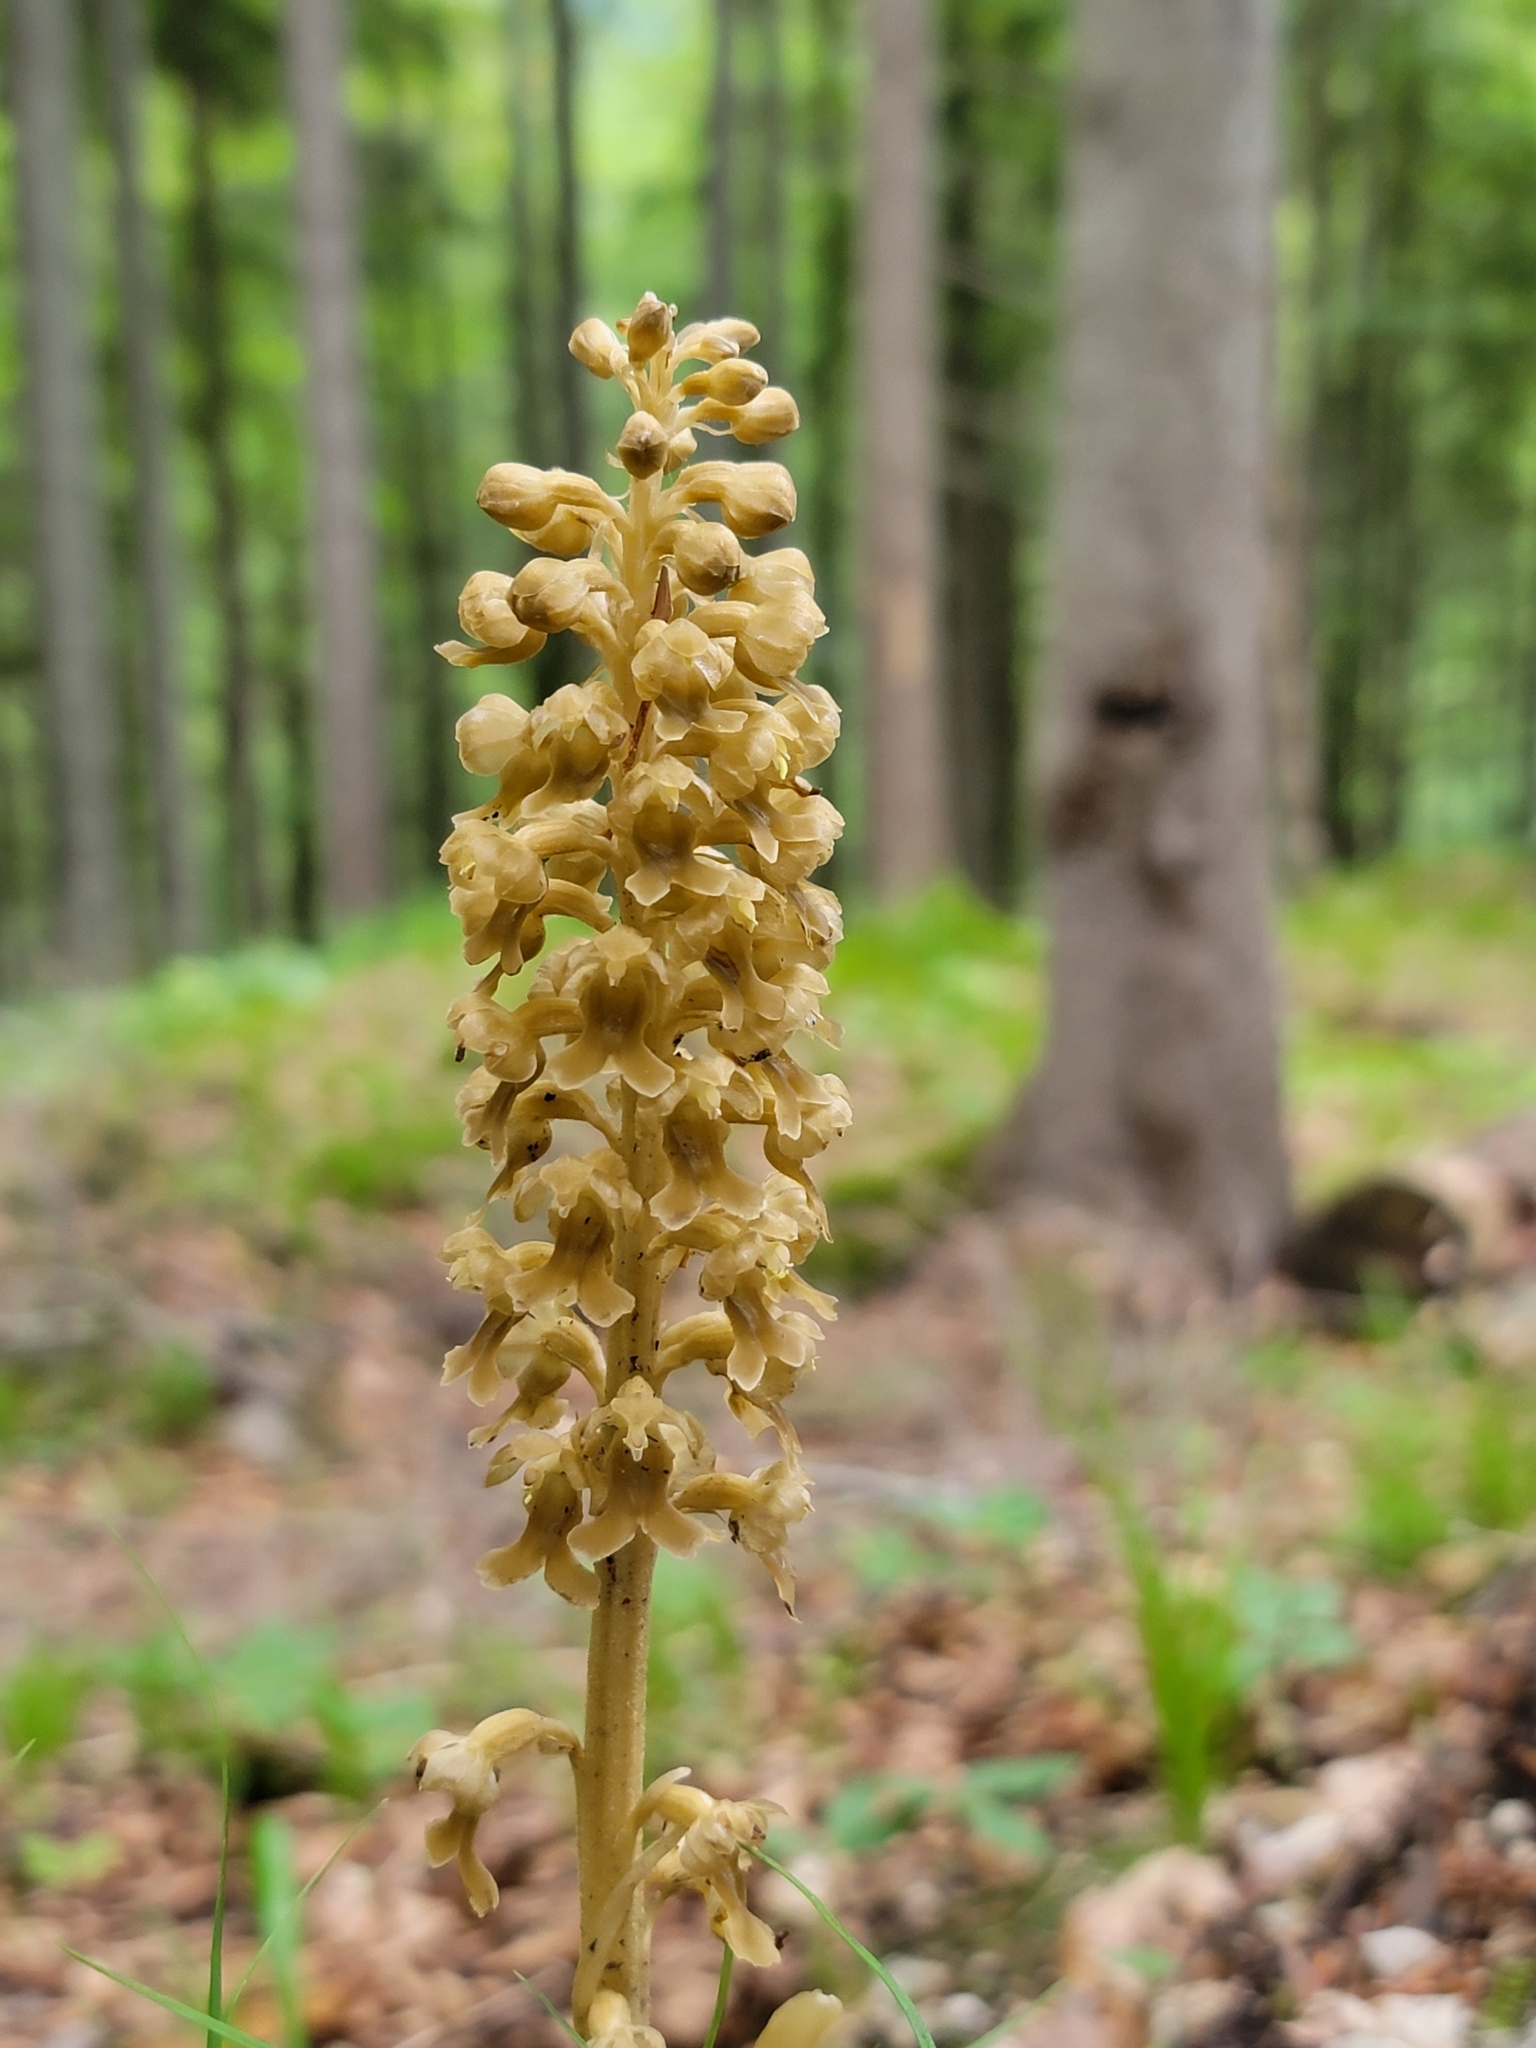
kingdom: Plantae
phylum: Tracheophyta
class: Liliopsida
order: Asparagales
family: Orchidaceae
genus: Neottia
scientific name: Neottia nidus-avis
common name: Bird's-nest orchid
